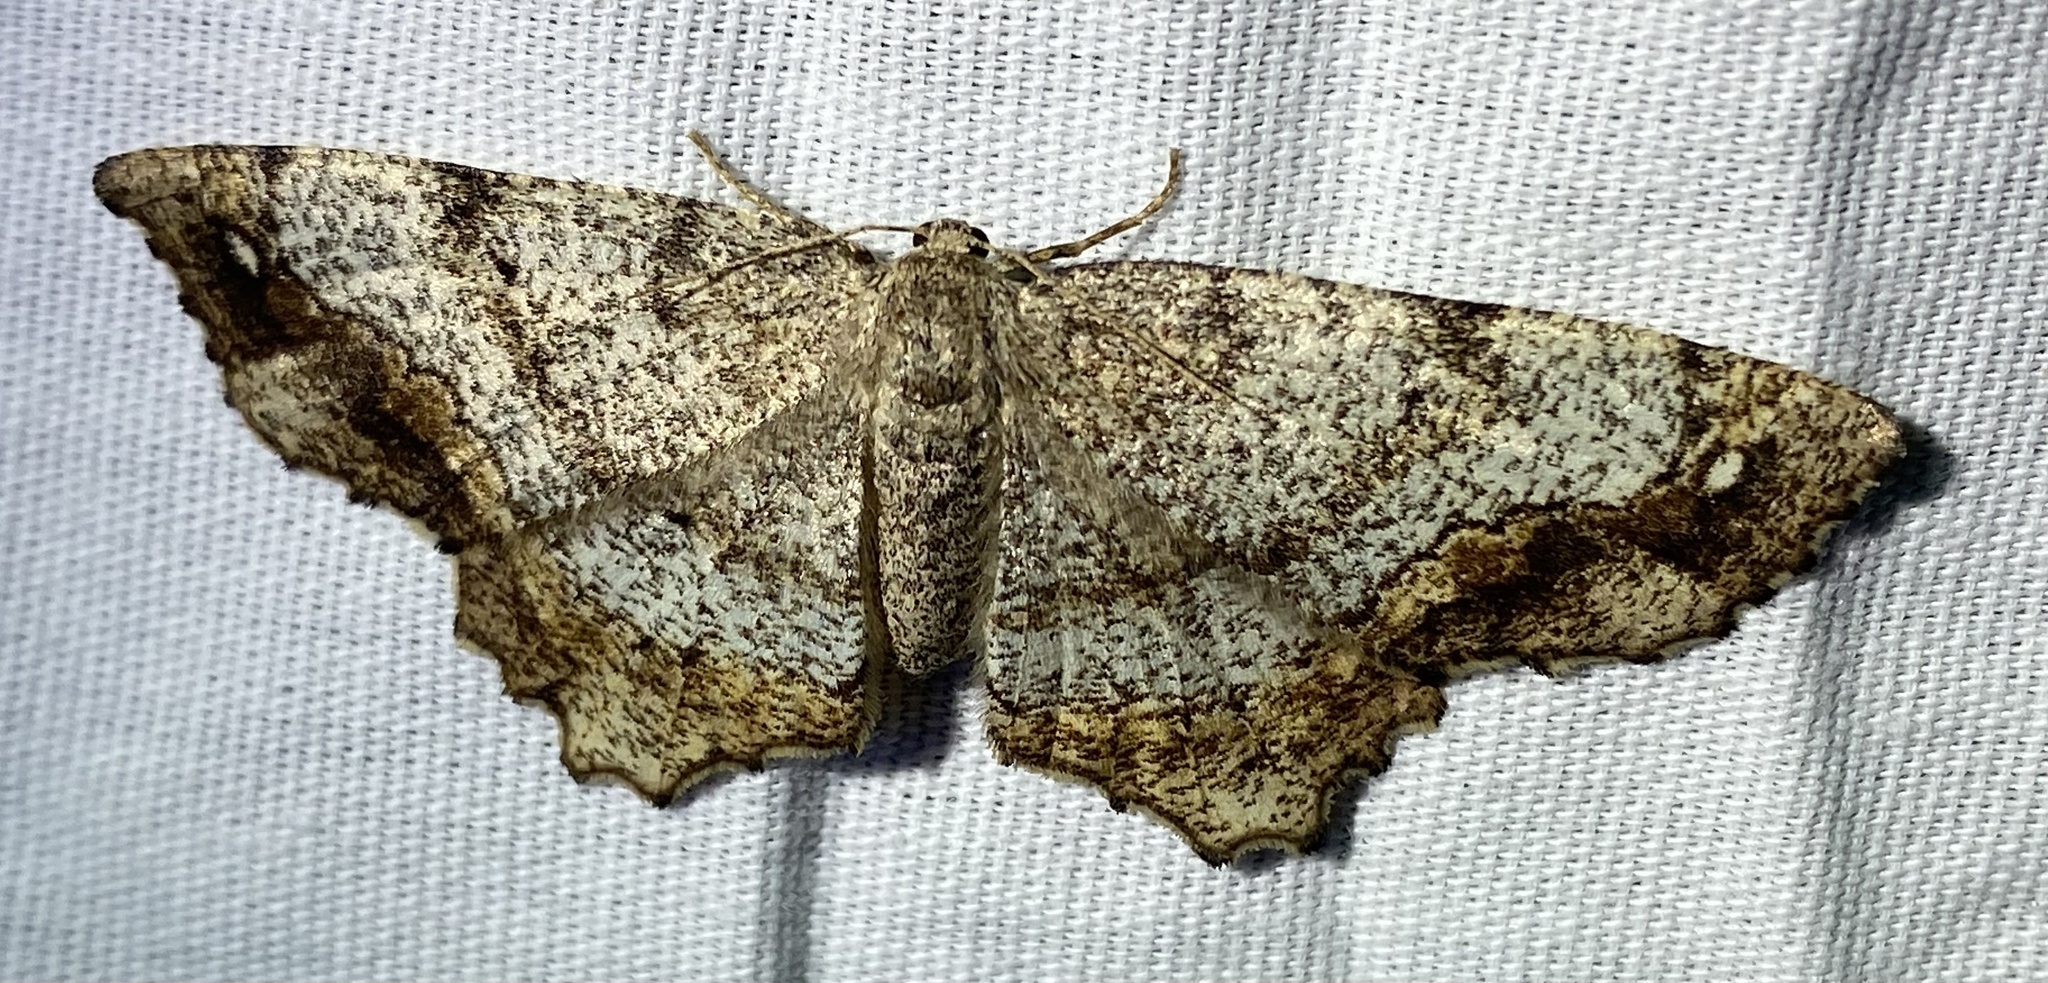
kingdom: Animalia
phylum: Arthropoda
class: Insecta
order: Lepidoptera
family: Geometridae
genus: Hypagyrtis
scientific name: Hypagyrtis unipunctata
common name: One-spotted variant
